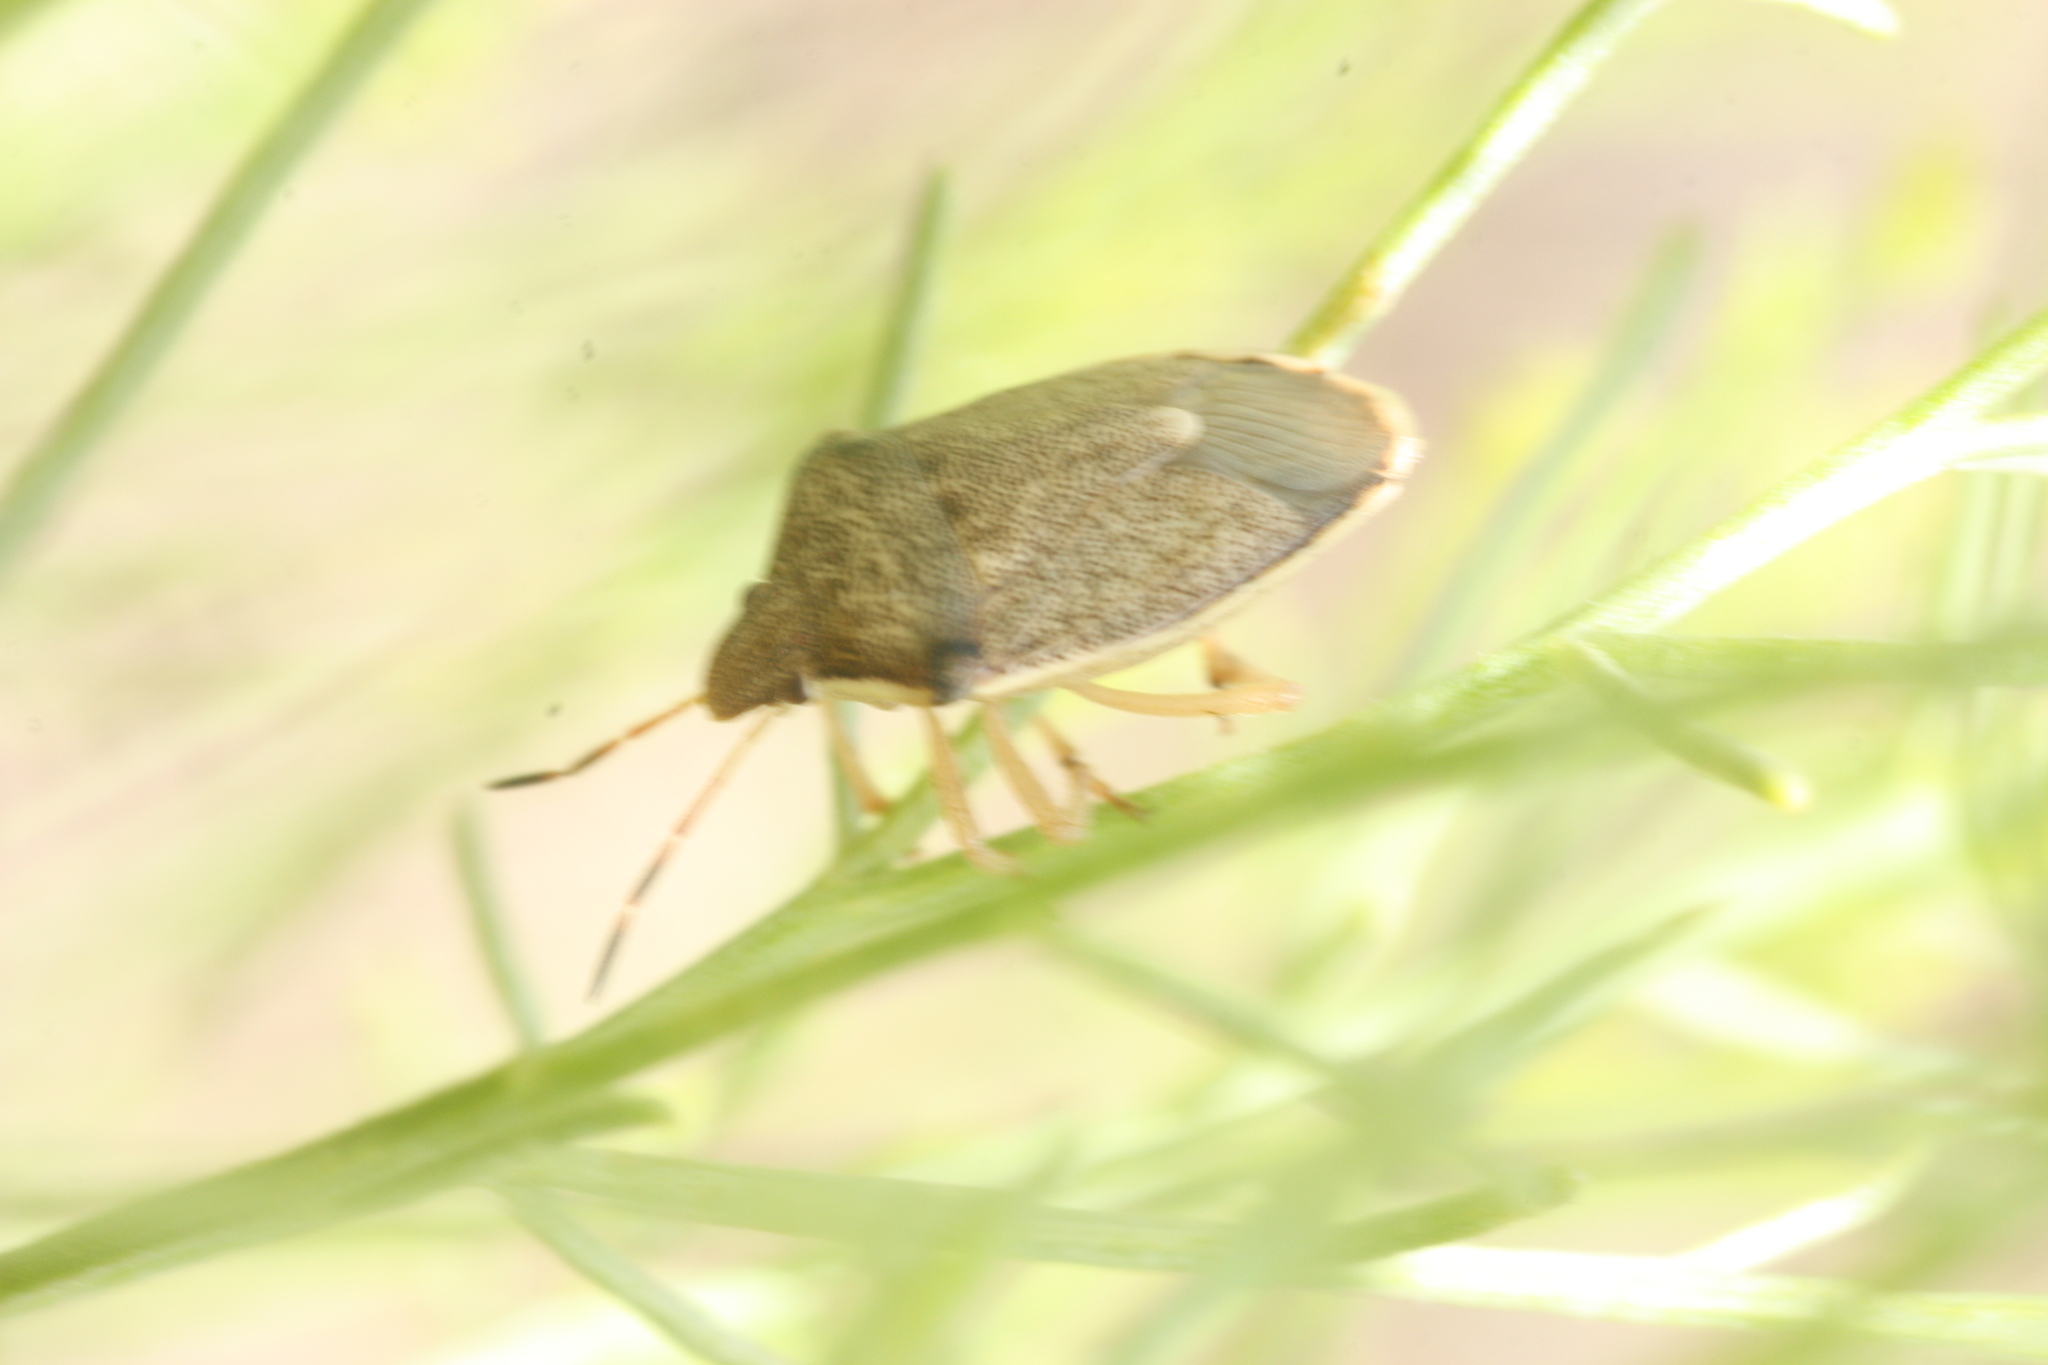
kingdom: Animalia
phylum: Arthropoda
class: Insecta
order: Hemiptera
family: Pentatomidae
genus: Holcostethus
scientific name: Holcostethus limbolarius
